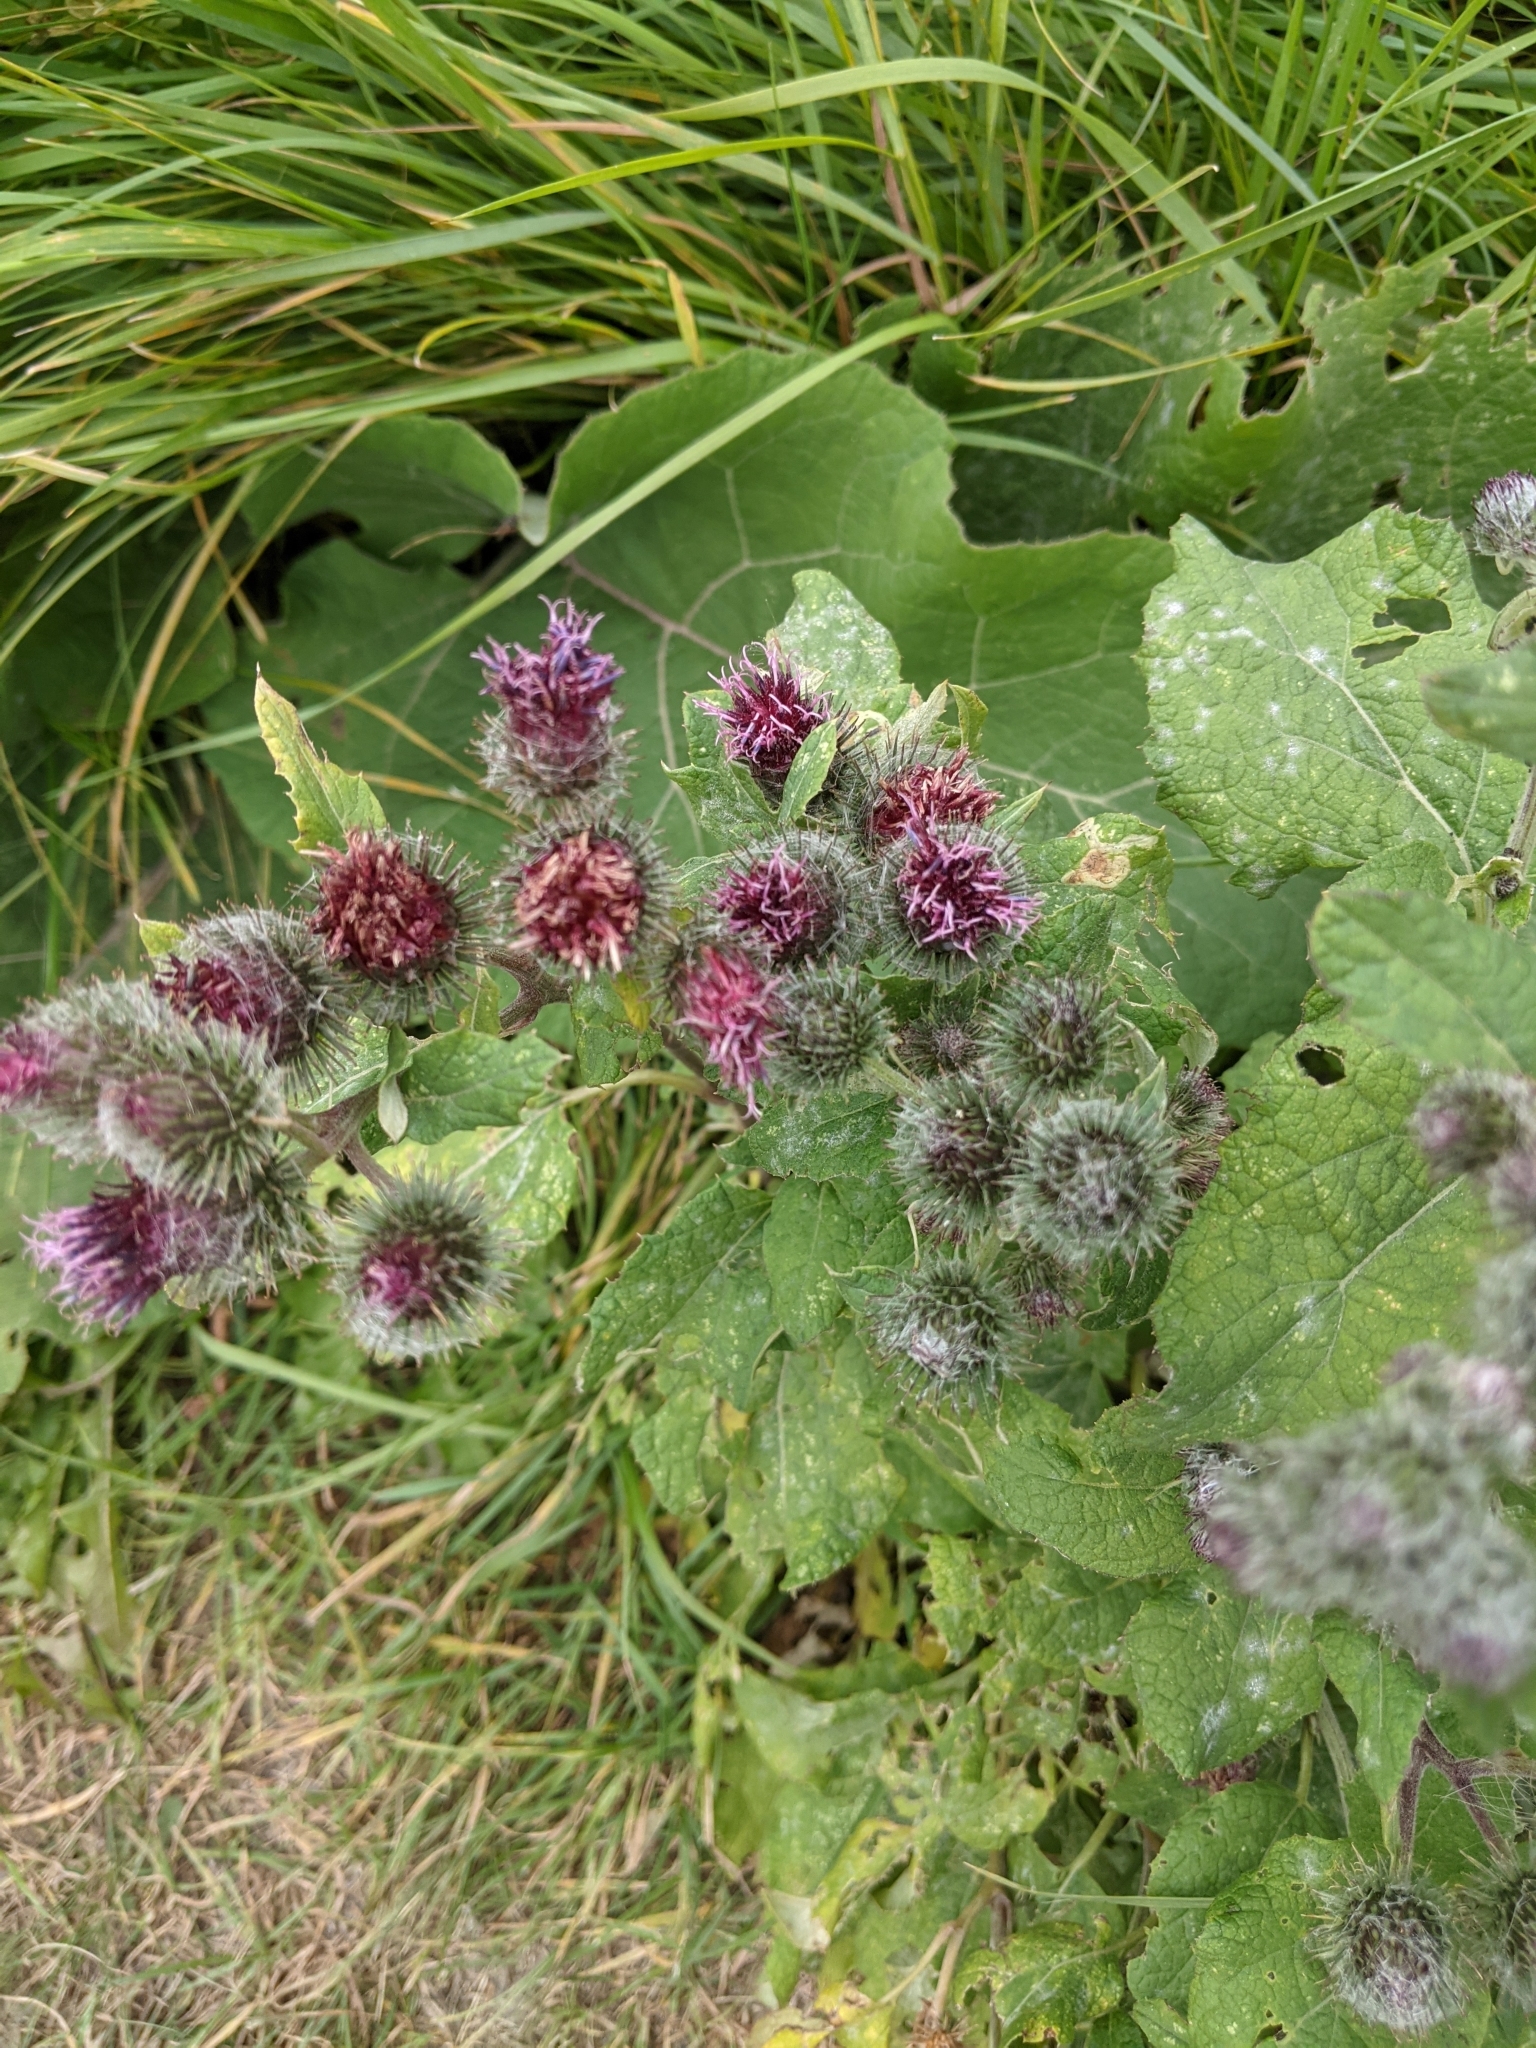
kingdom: Plantae
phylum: Tracheophyta
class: Magnoliopsida
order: Asterales
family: Asteraceae
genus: Arctium
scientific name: Arctium tomentosum
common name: Woolly burdock
